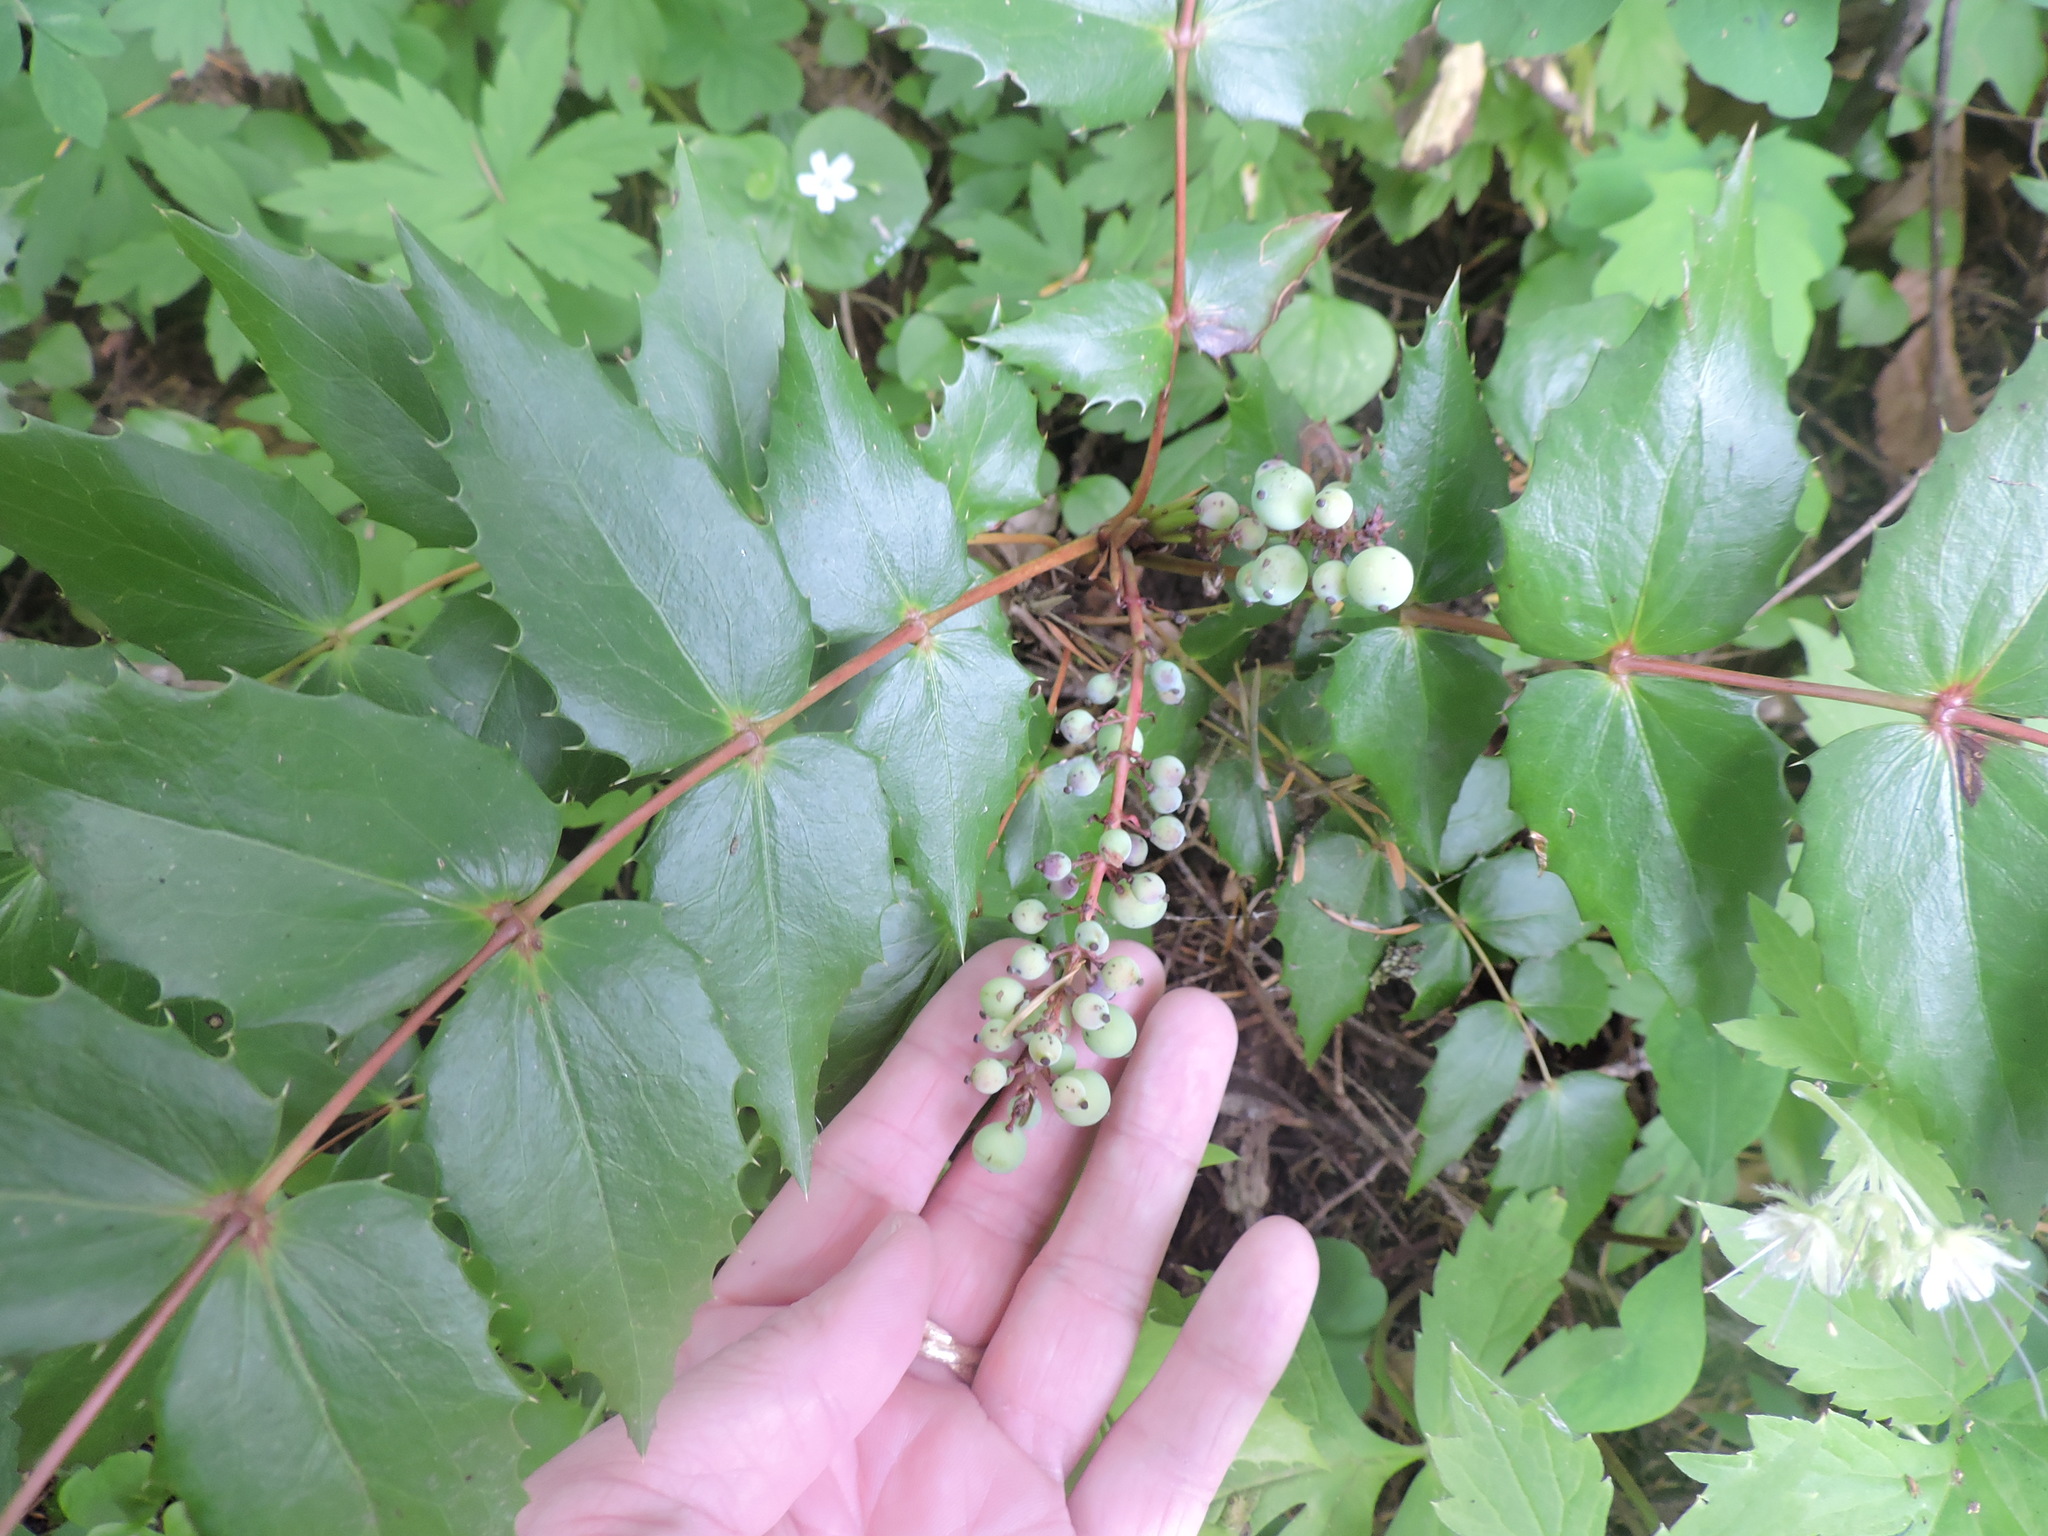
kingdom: Plantae
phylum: Tracheophyta
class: Magnoliopsida
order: Ranunculales
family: Berberidaceae
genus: Mahonia
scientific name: Mahonia nervosa
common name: Cascade oregon-grape
